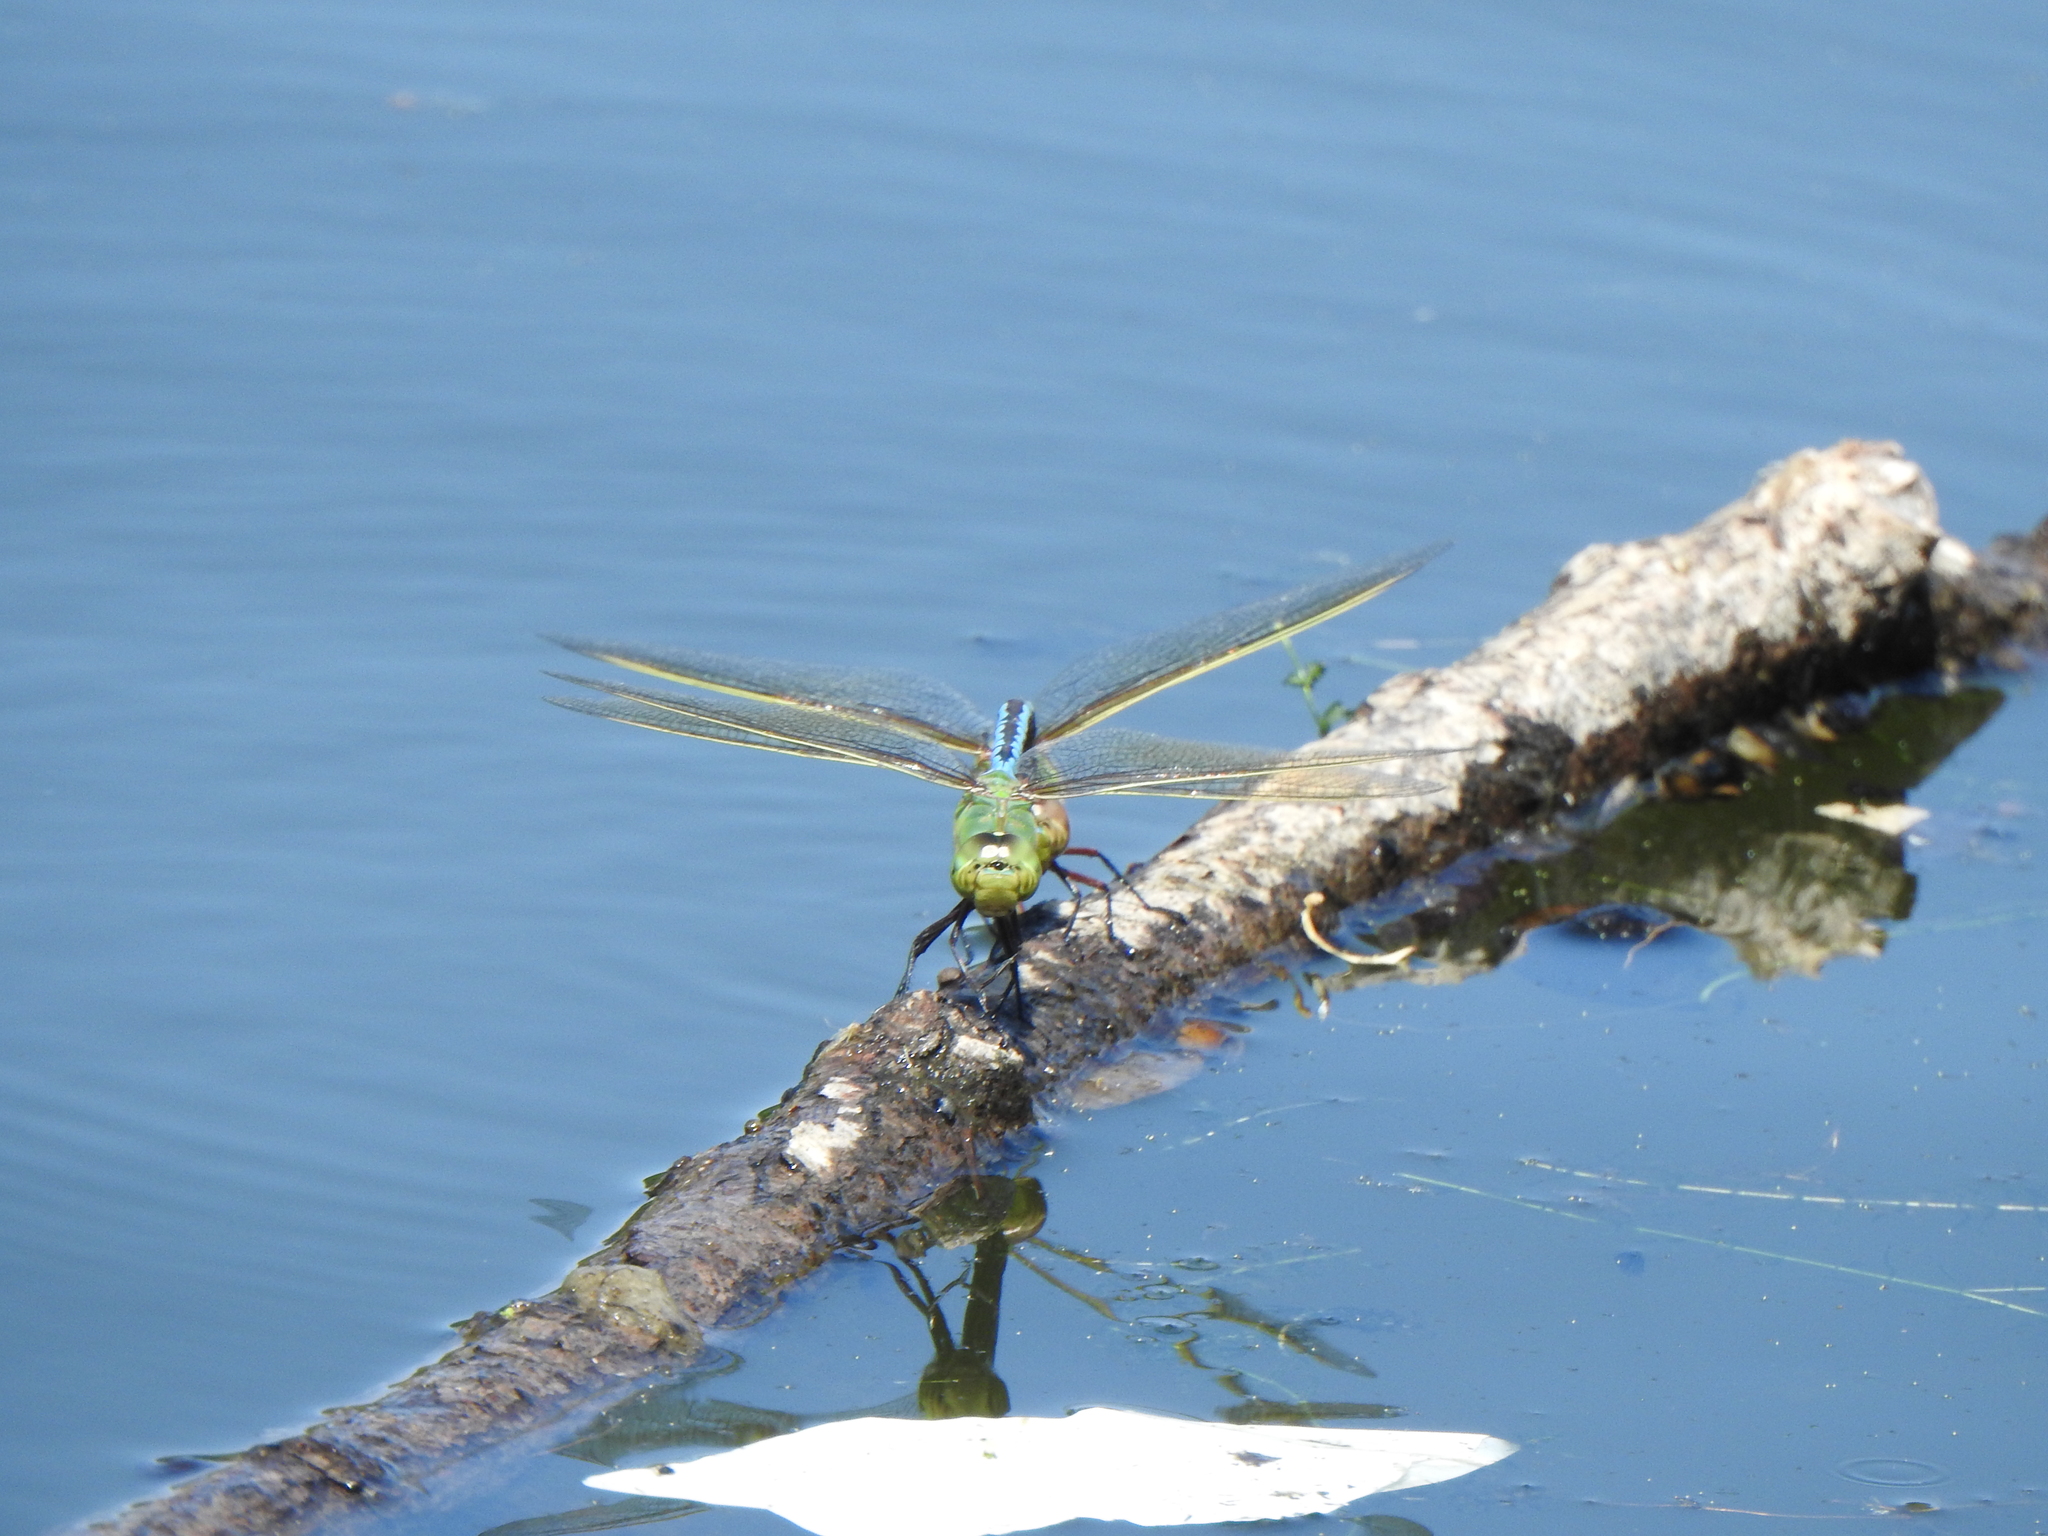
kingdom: Animalia
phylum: Arthropoda
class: Insecta
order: Odonata
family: Aeshnidae
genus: Anax
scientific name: Anax junius
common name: Common green darner
